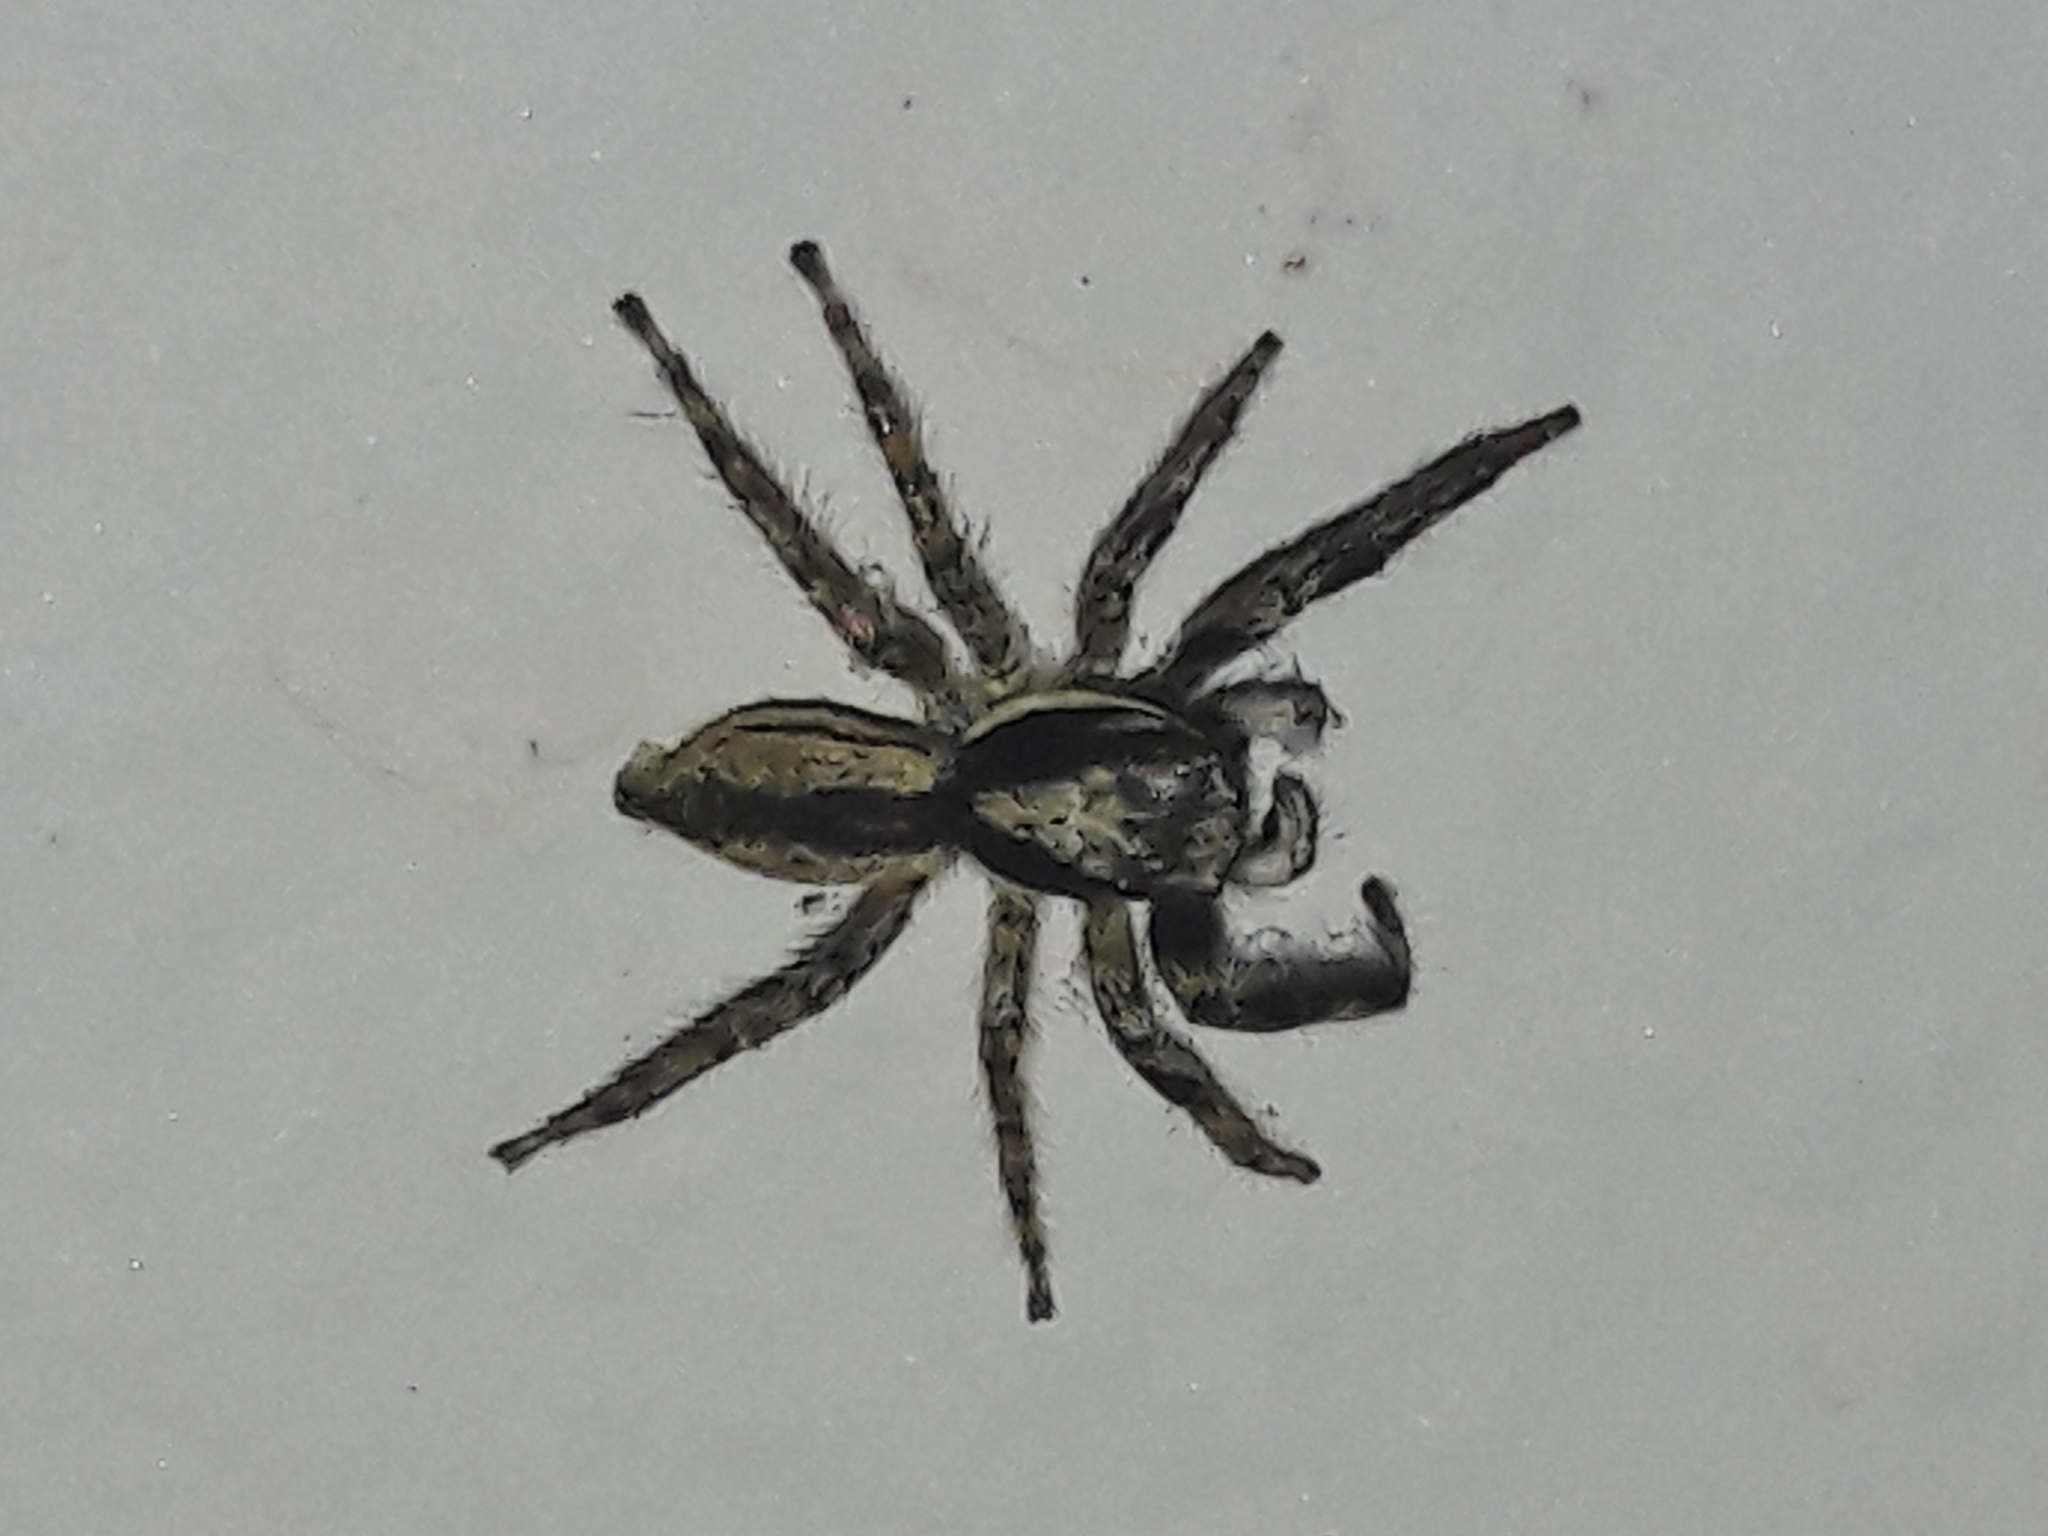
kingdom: Animalia
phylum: Arthropoda
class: Arachnida
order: Araneae
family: Salticidae
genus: Menemerus
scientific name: Menemerus bivittatus
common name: Gray wall jumper
